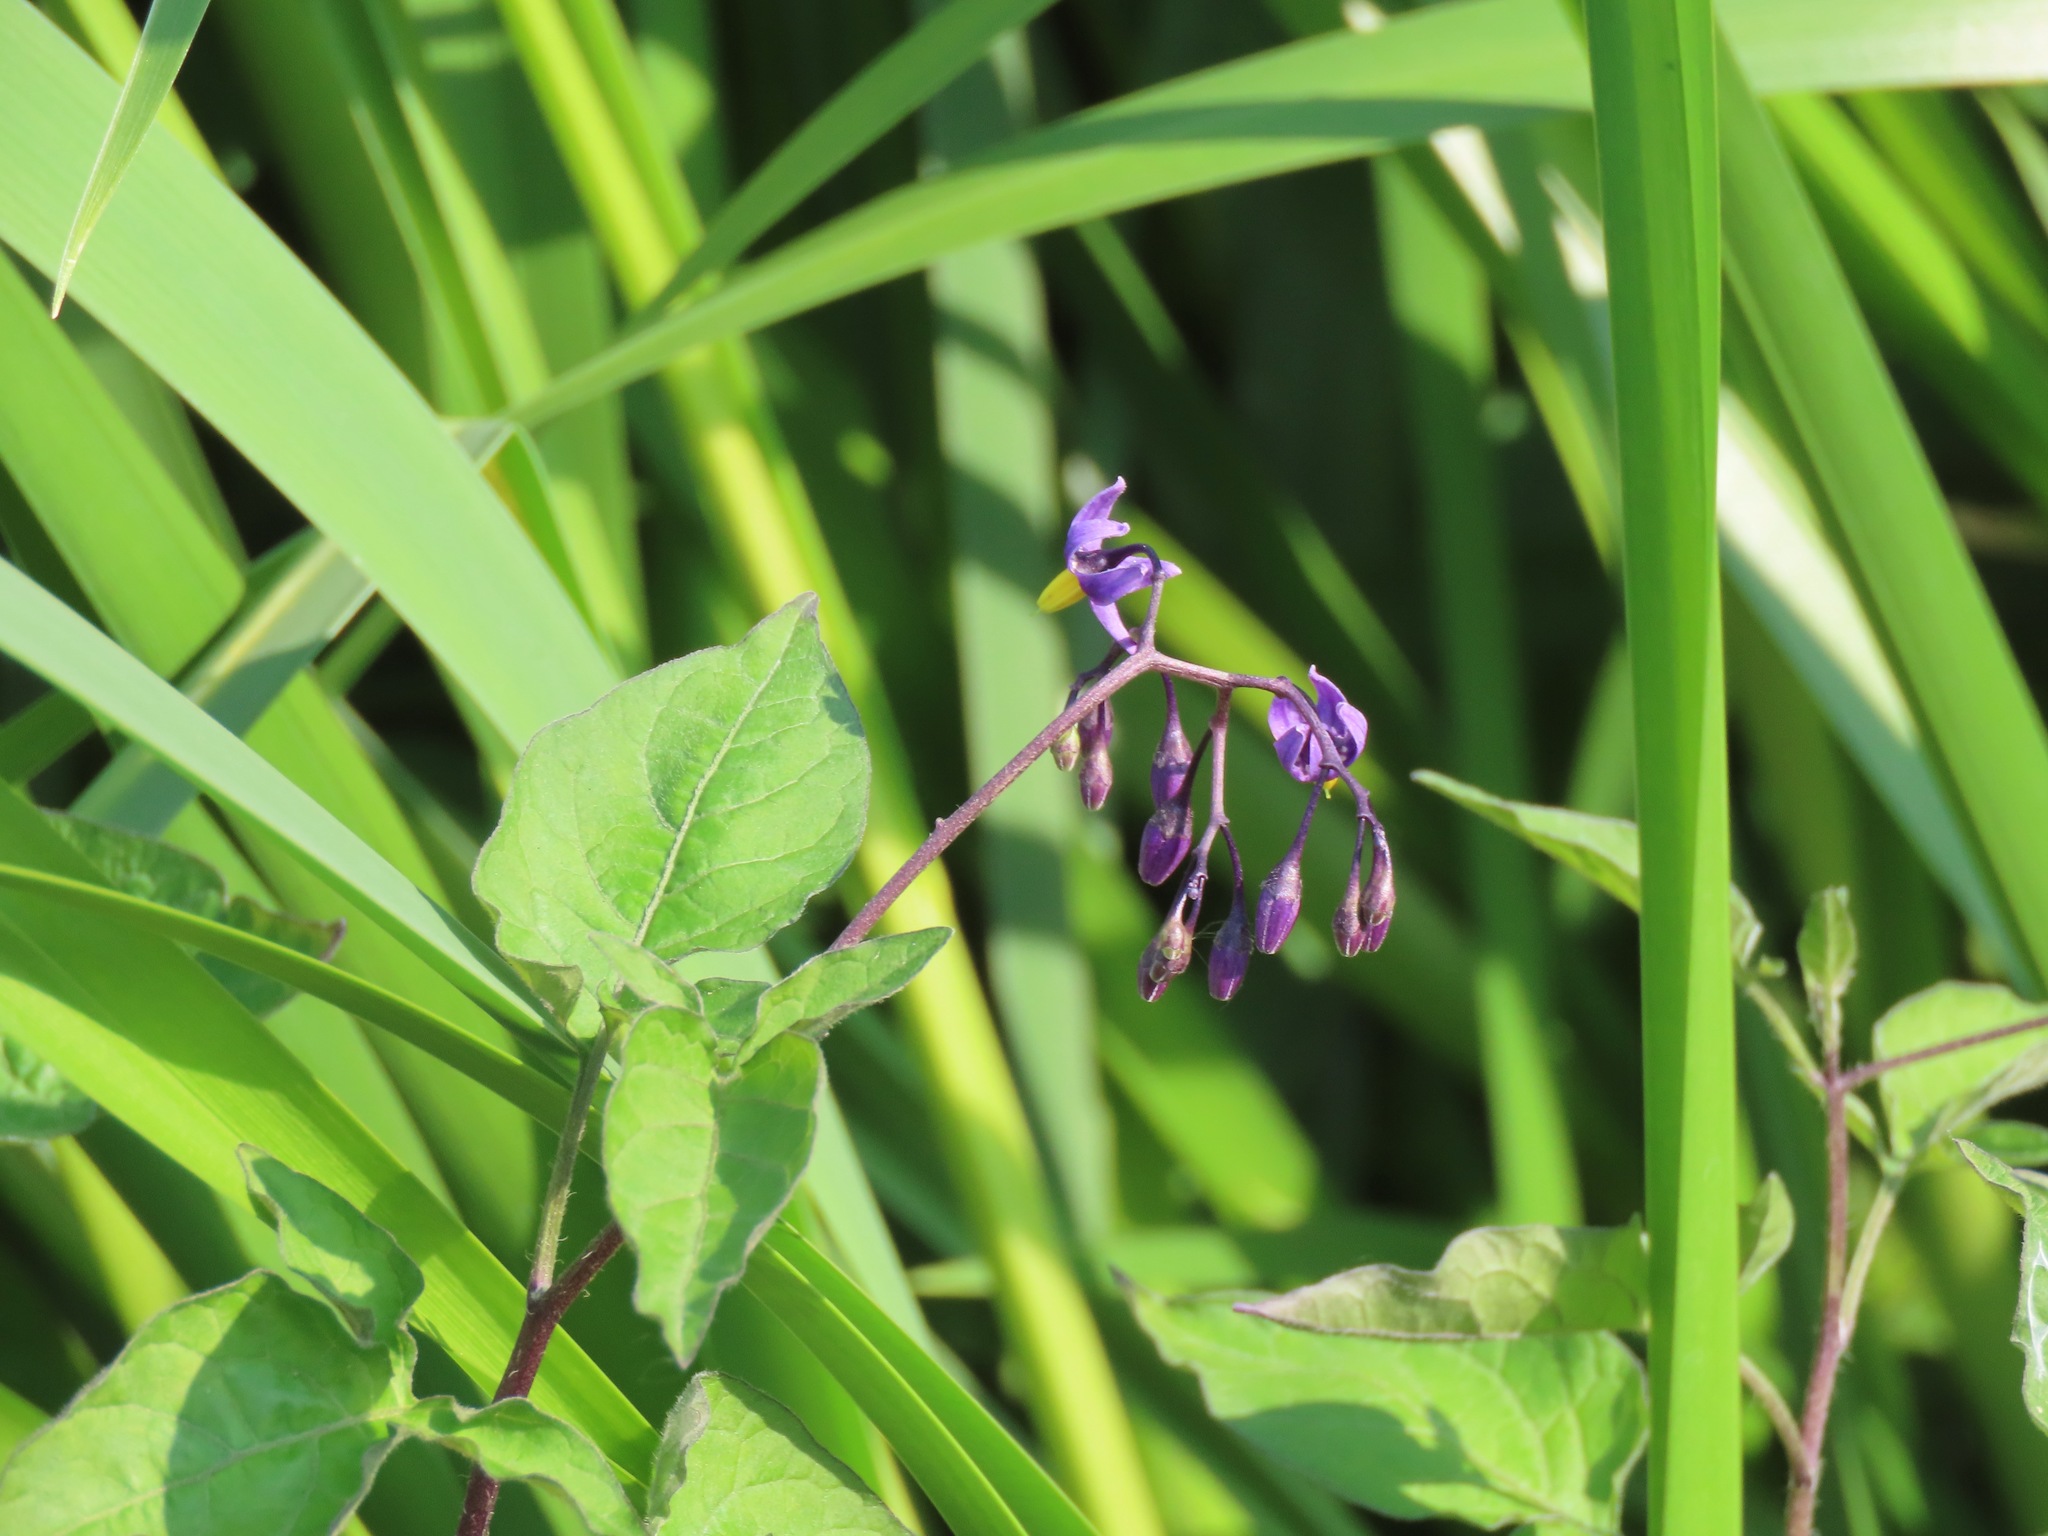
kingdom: Plantae
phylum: Tracheophyta
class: Magnoliopsida
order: Solanales
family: Solanaceae
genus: Solanum
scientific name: Solanum dulcamara
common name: Climbing nightshade
